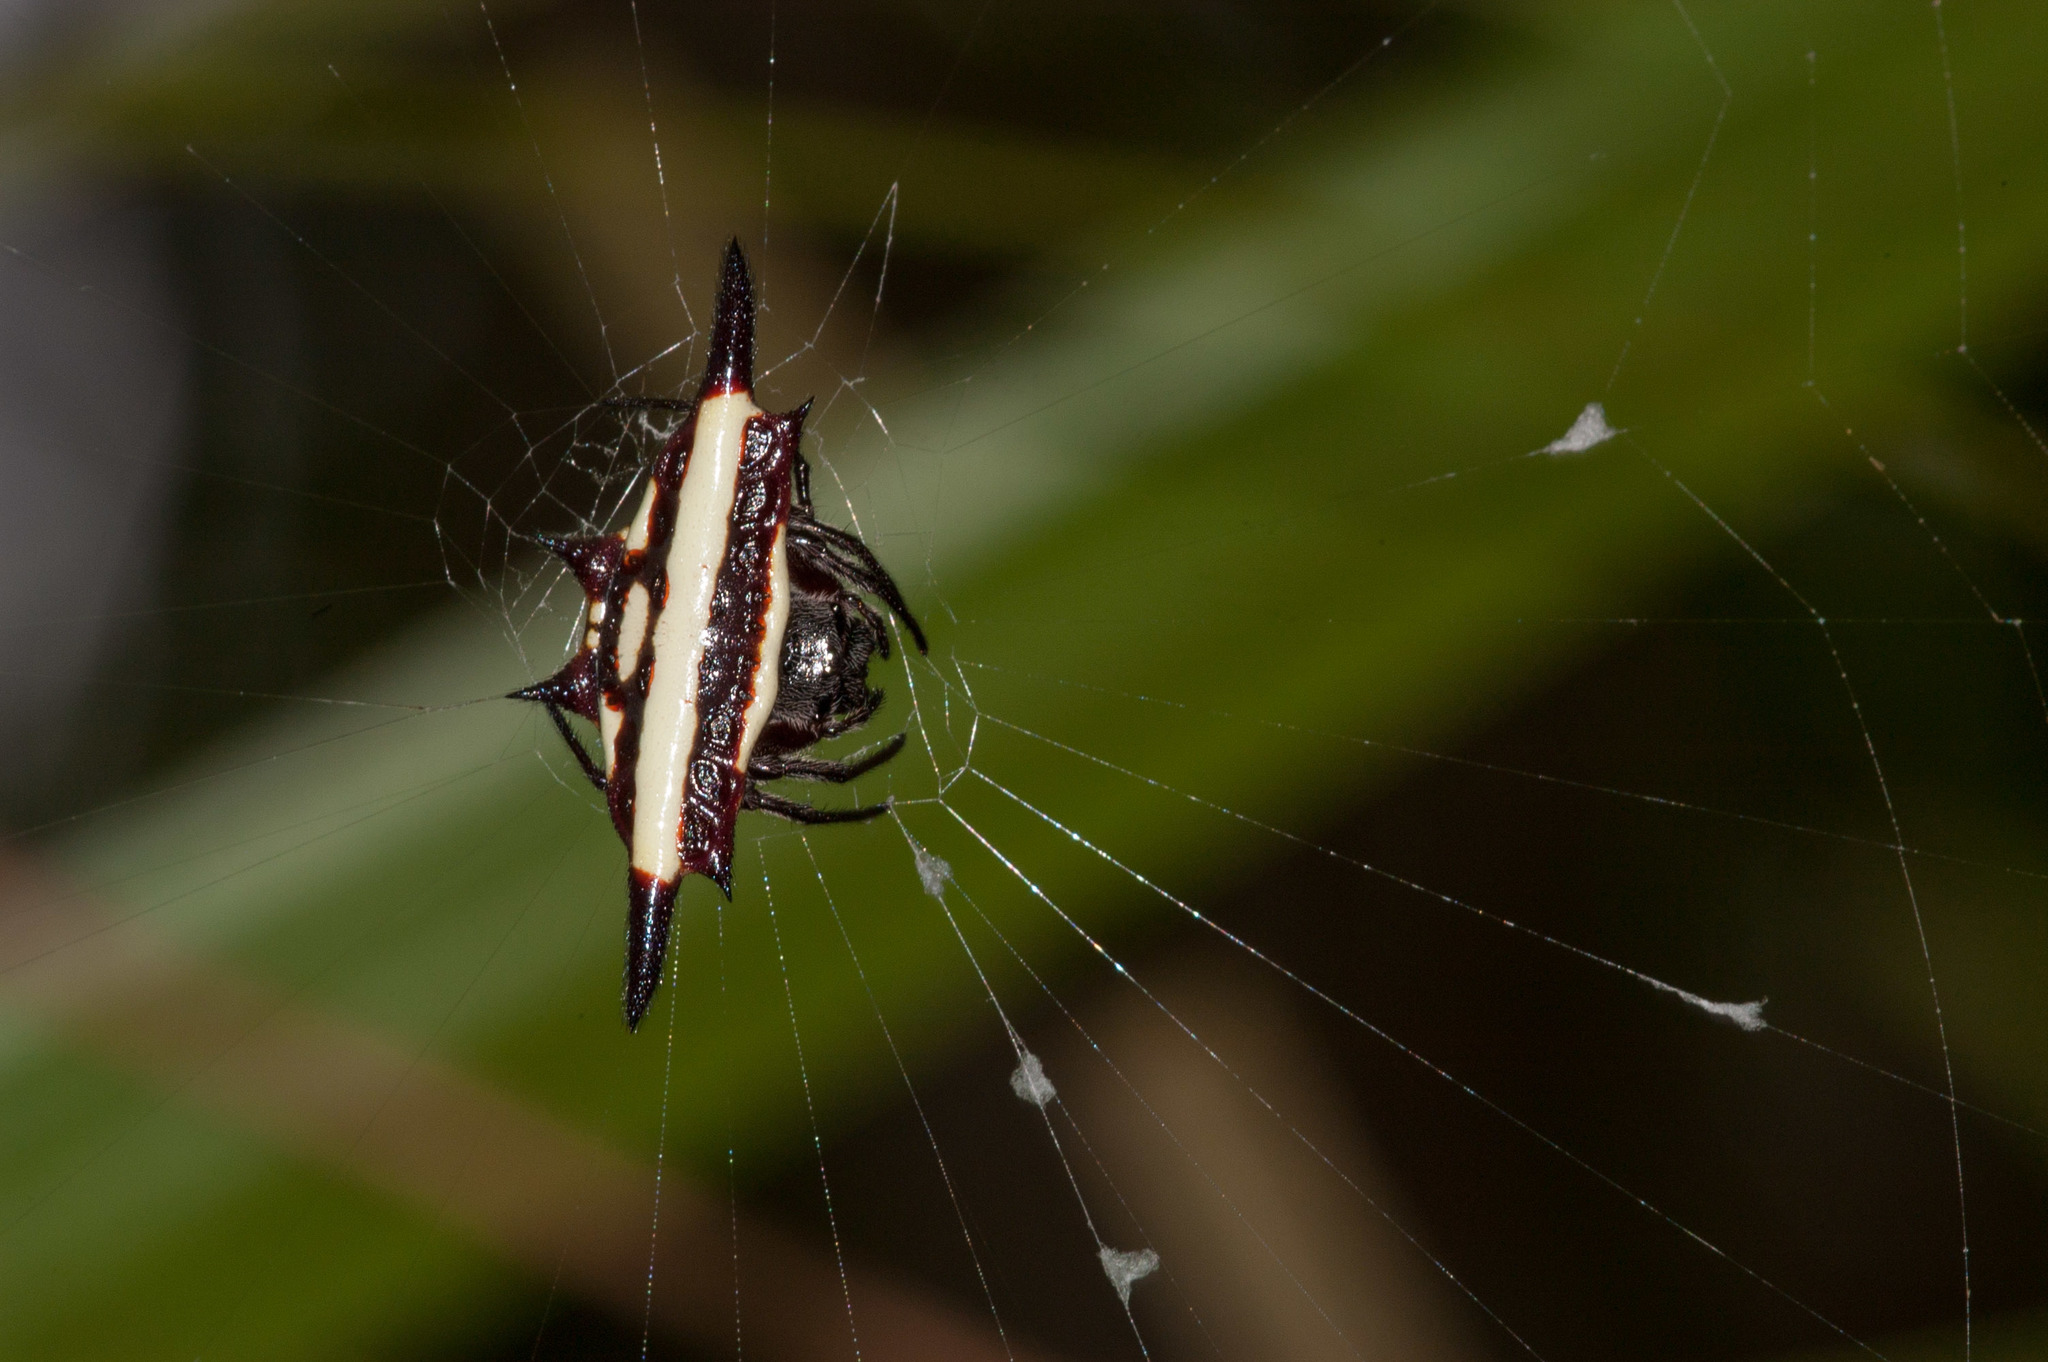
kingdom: Animalia
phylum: Arthropoda
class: Arachnida
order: Araneae
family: Araneidae
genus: Gasteracantha
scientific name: Gasteracantha fornicata
